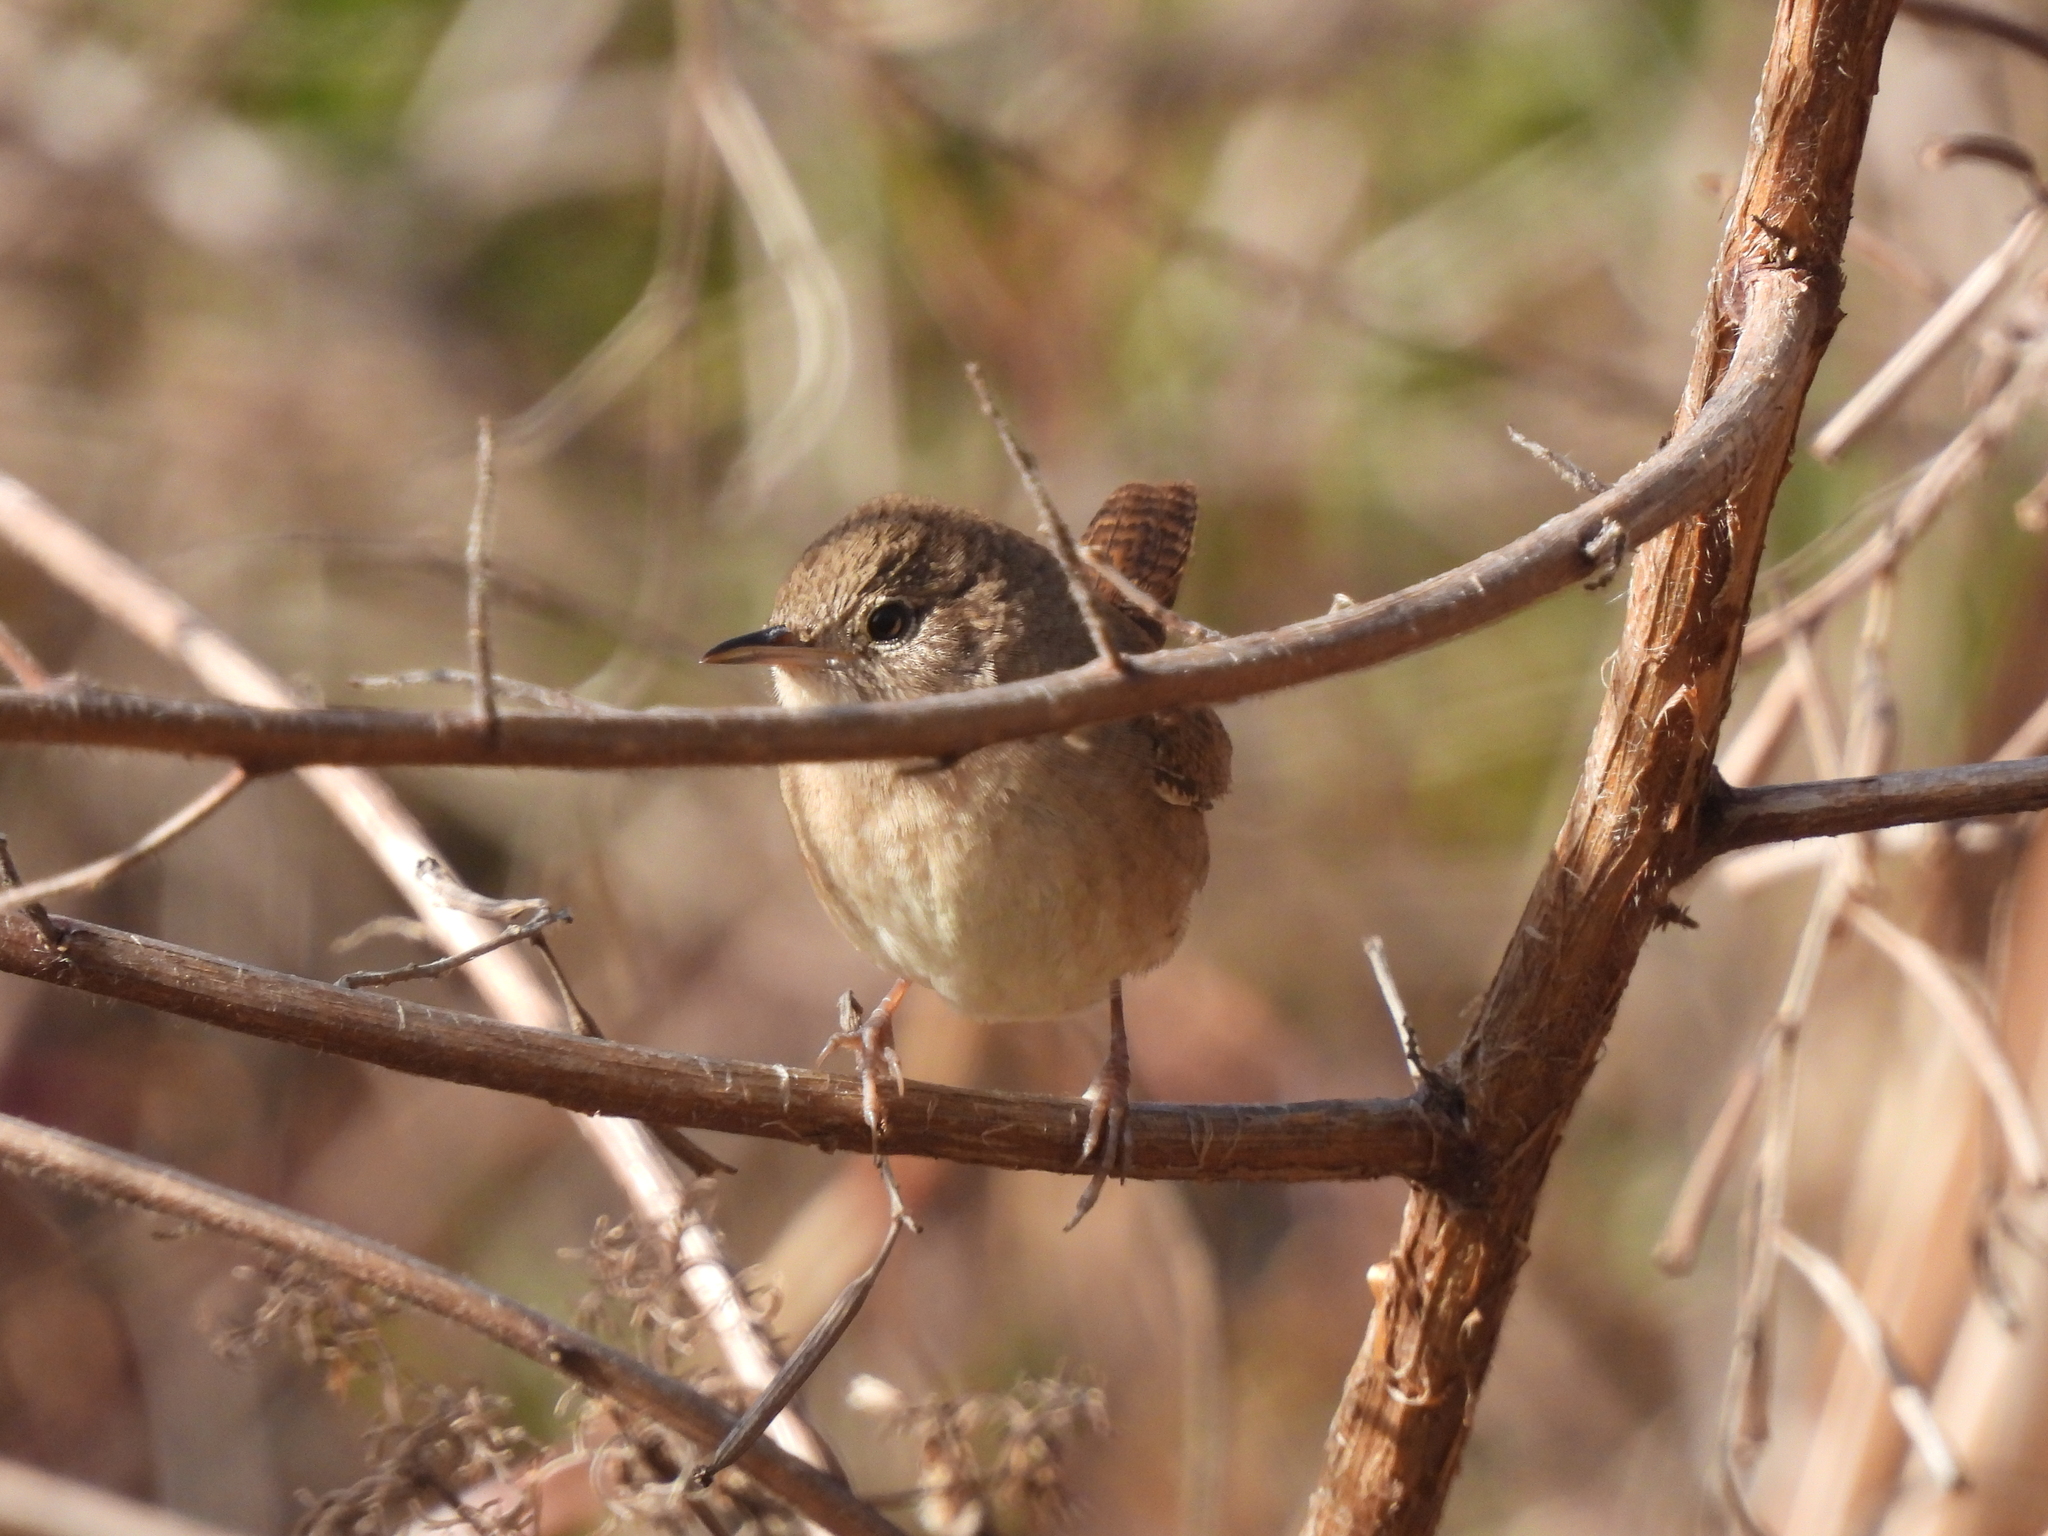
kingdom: Animalia
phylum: Chordata
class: Aves
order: Passeriformes
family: Troglodytidae
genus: Troglodytes
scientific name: Troglodytes aedon
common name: House wren
